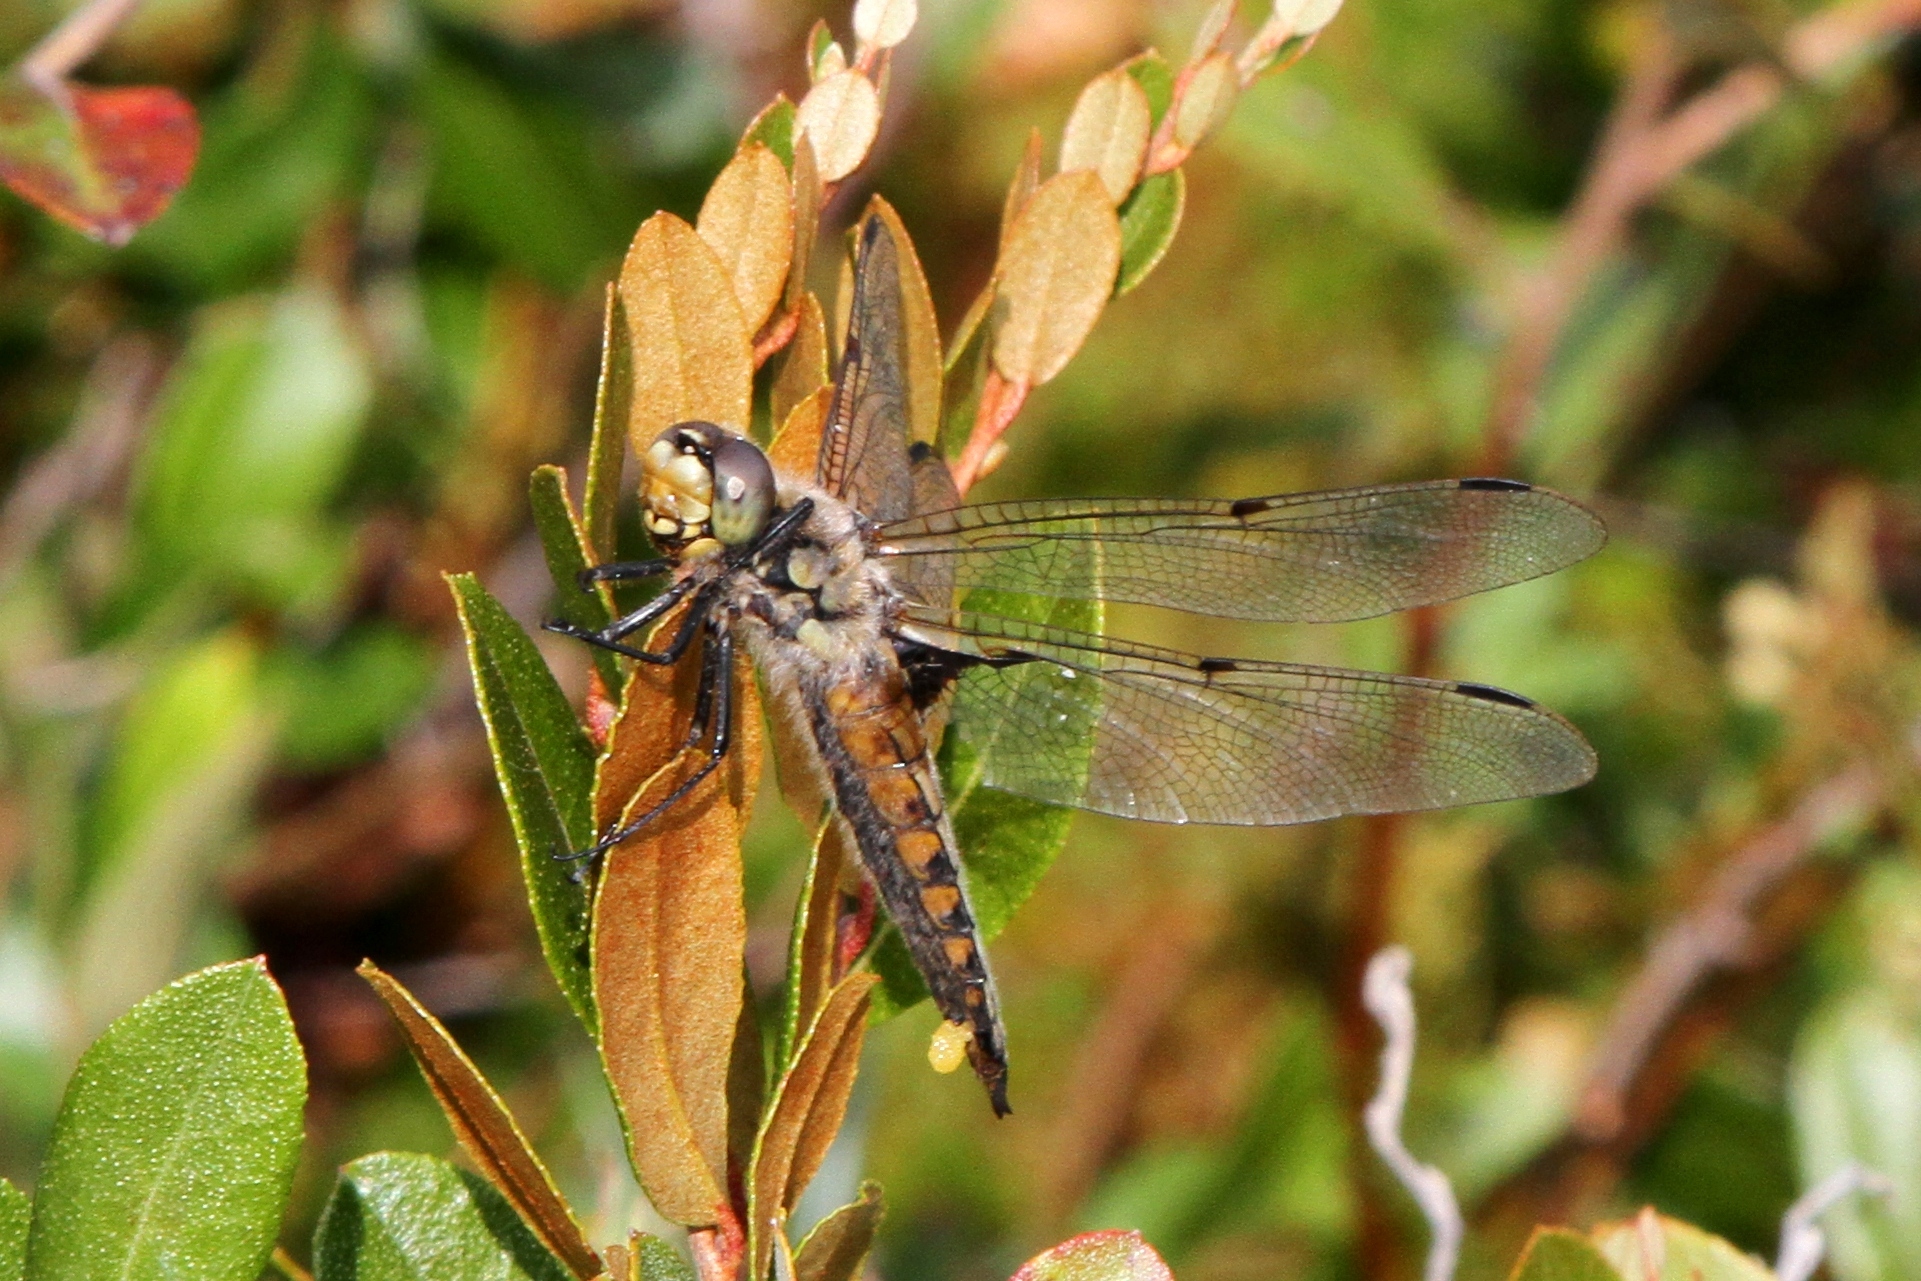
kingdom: Animalia
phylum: Arthropoda
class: Insecta
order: Odonata
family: Libellulidae
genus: Libellula
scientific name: Libellula quadrimaculata
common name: Four-spotted chaser
